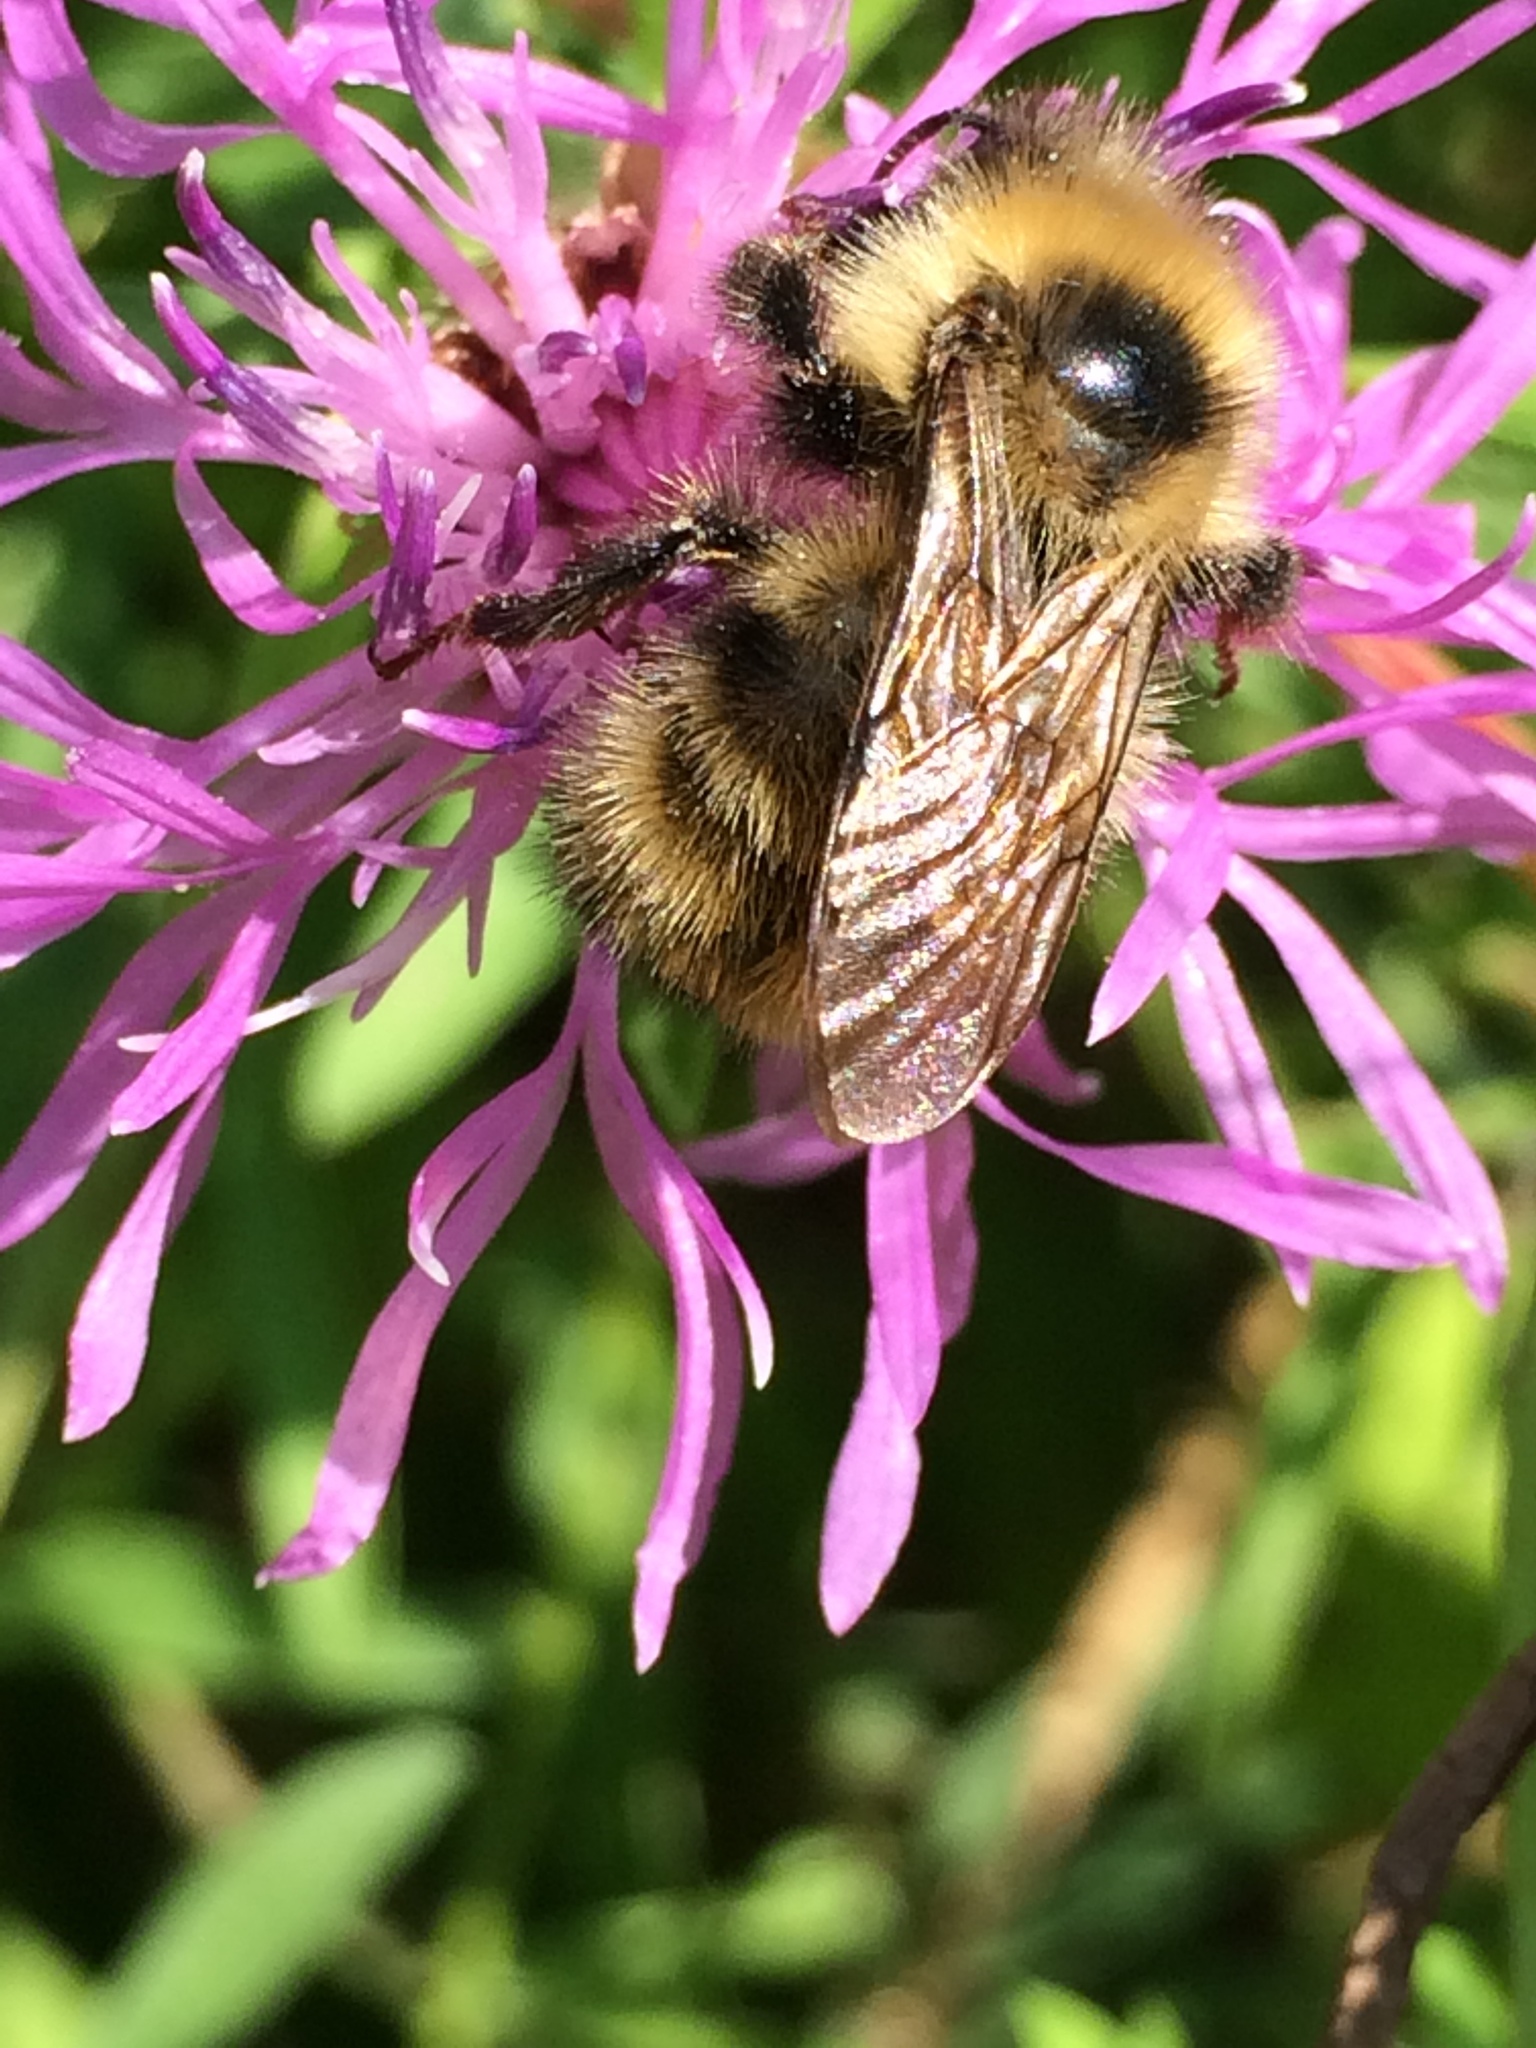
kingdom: Animalia
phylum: Arthropoda
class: Insecta
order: Hymenoptera
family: Apidae
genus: Bombus
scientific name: Bombus flavidus
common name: Fernald cuckoo bumble bee
